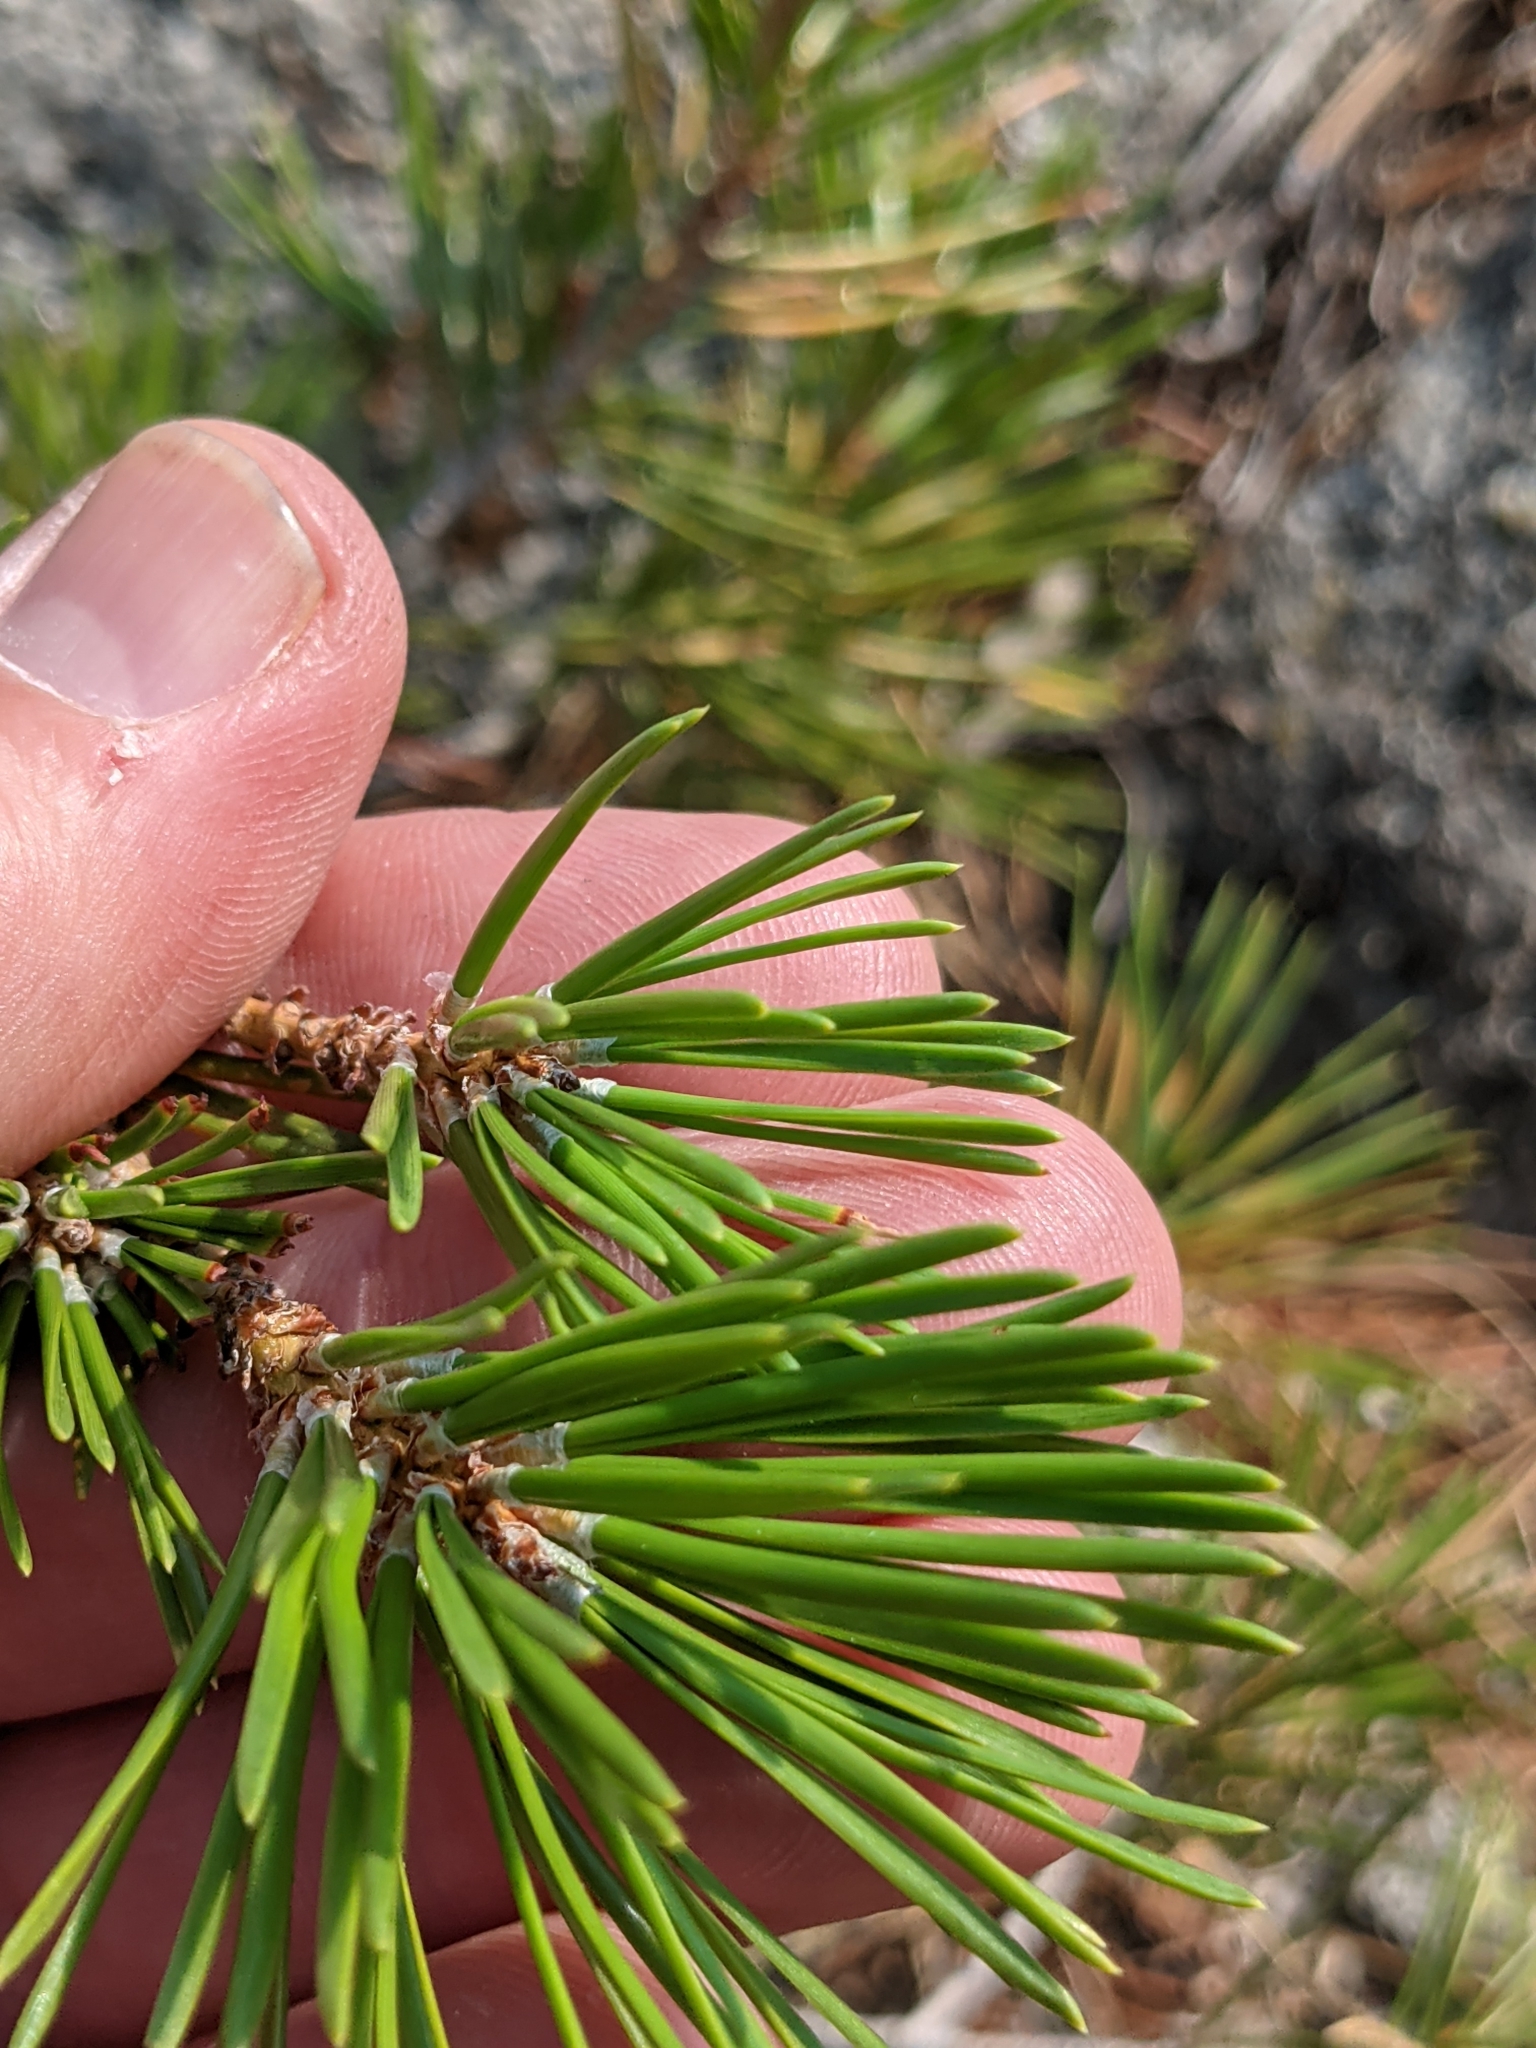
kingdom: Plantae
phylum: Tracheophyta
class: Pinopsida
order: Pinales
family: Pinaceae
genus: Pinus
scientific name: Pinus contorta
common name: Lodgepole pine
